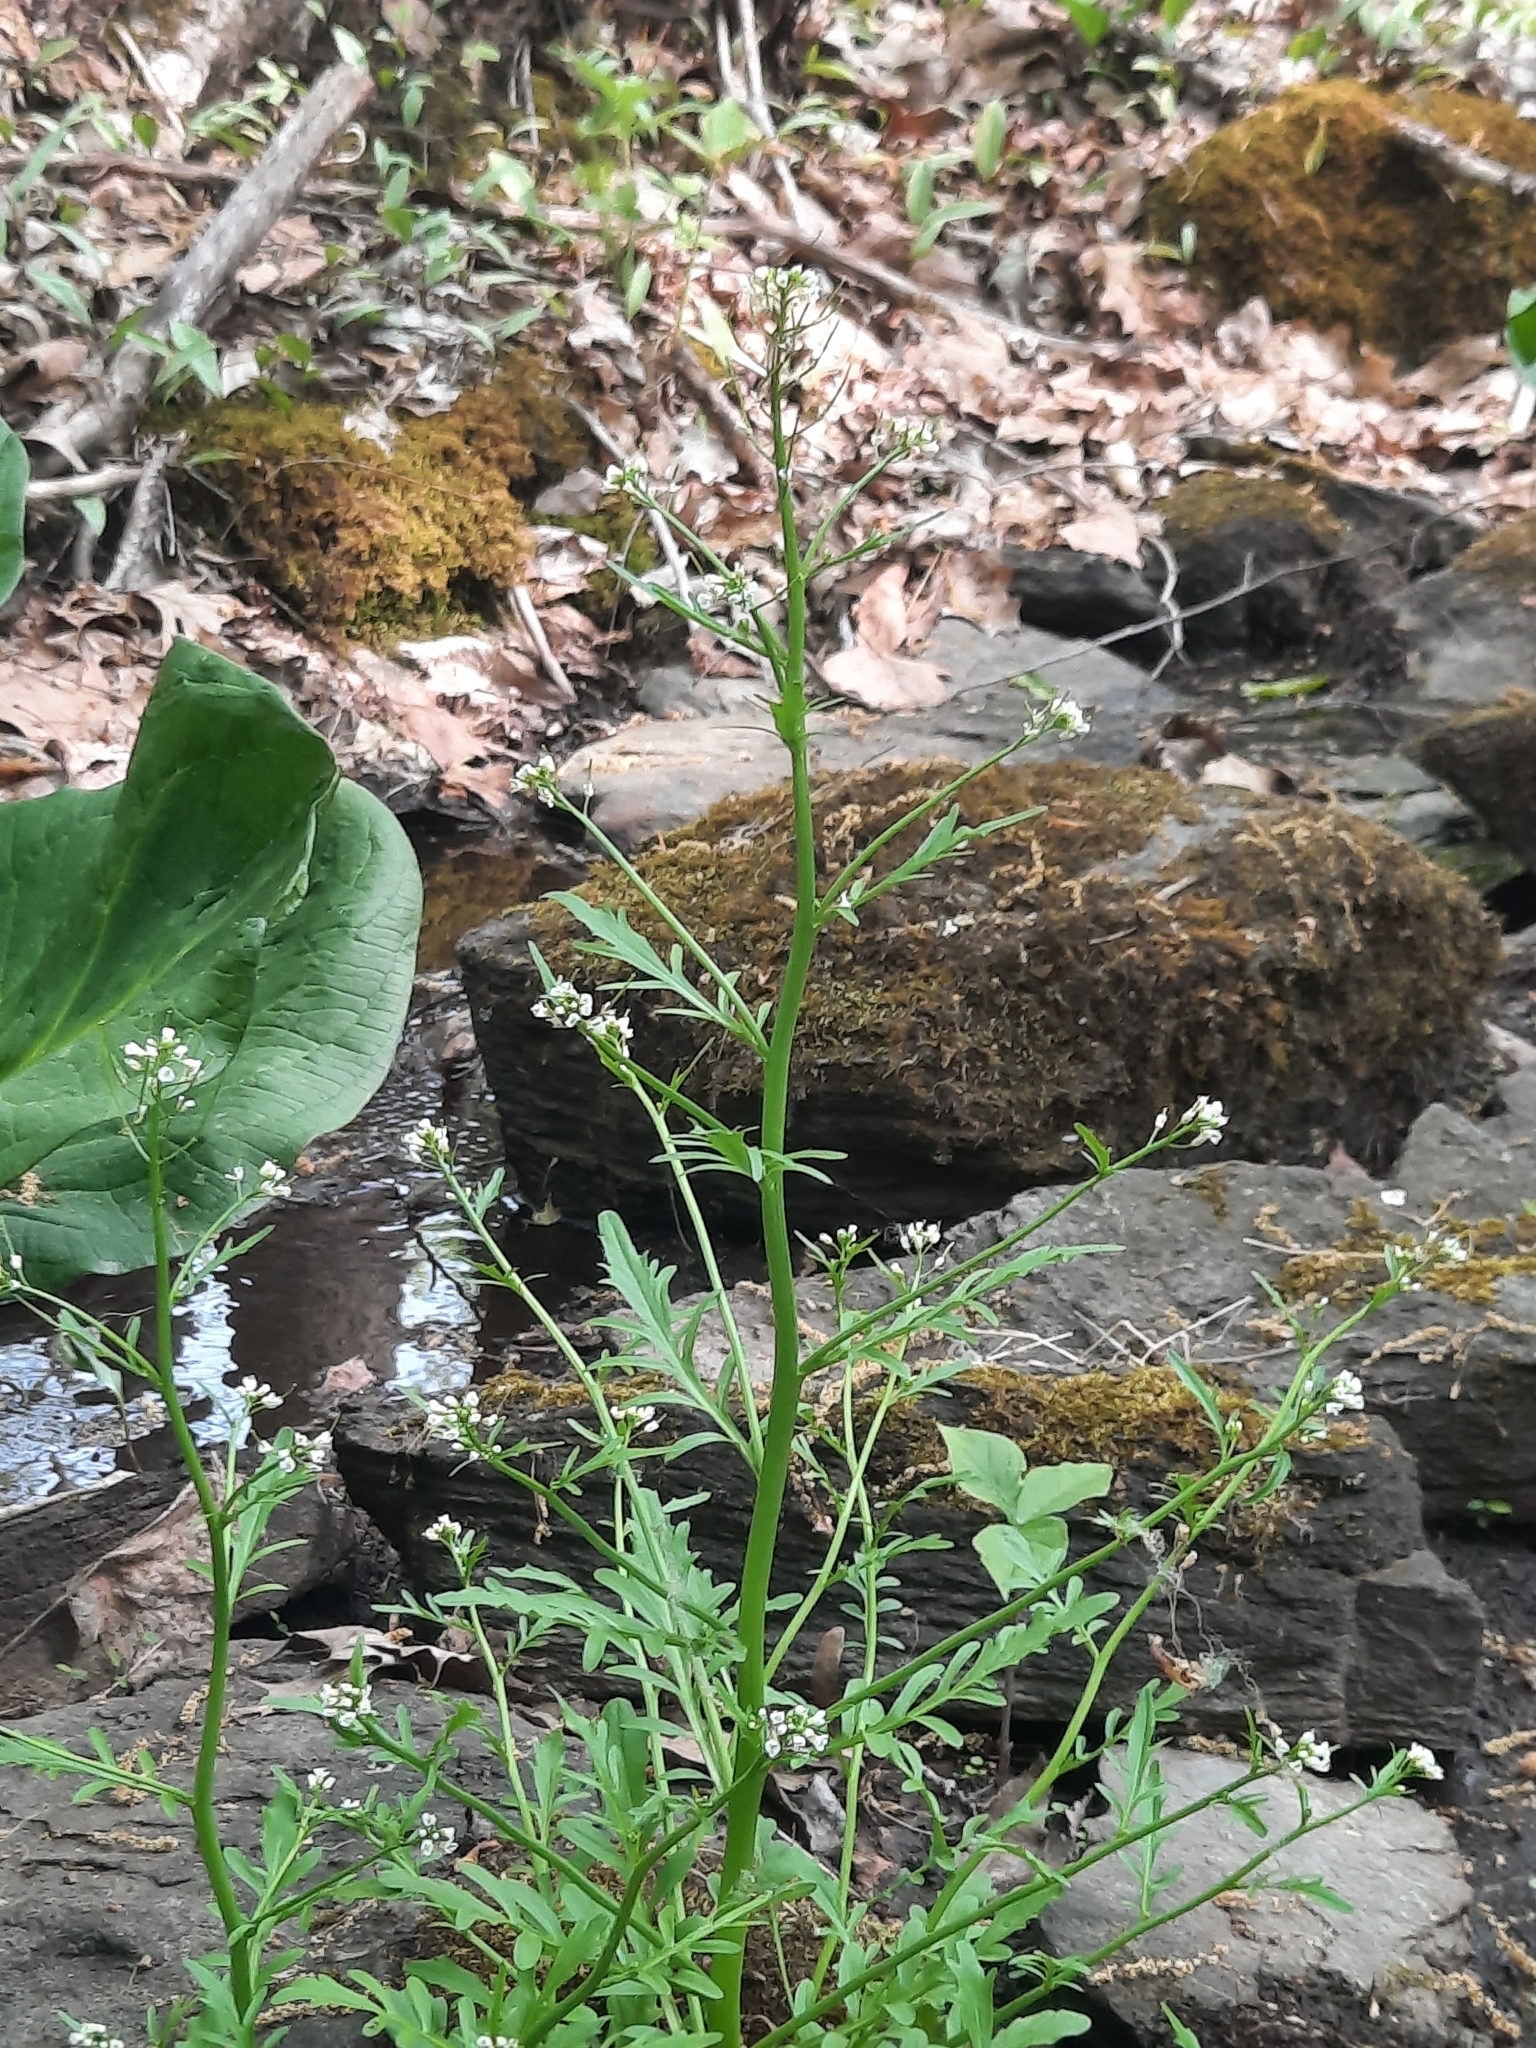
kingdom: Plantae
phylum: Tracheophyta
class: Magnoliopsida
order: Brassicales
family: Brassicaceae
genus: Cardamine
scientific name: Cardamine pensylvanica
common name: Pennsylvania bittercress
